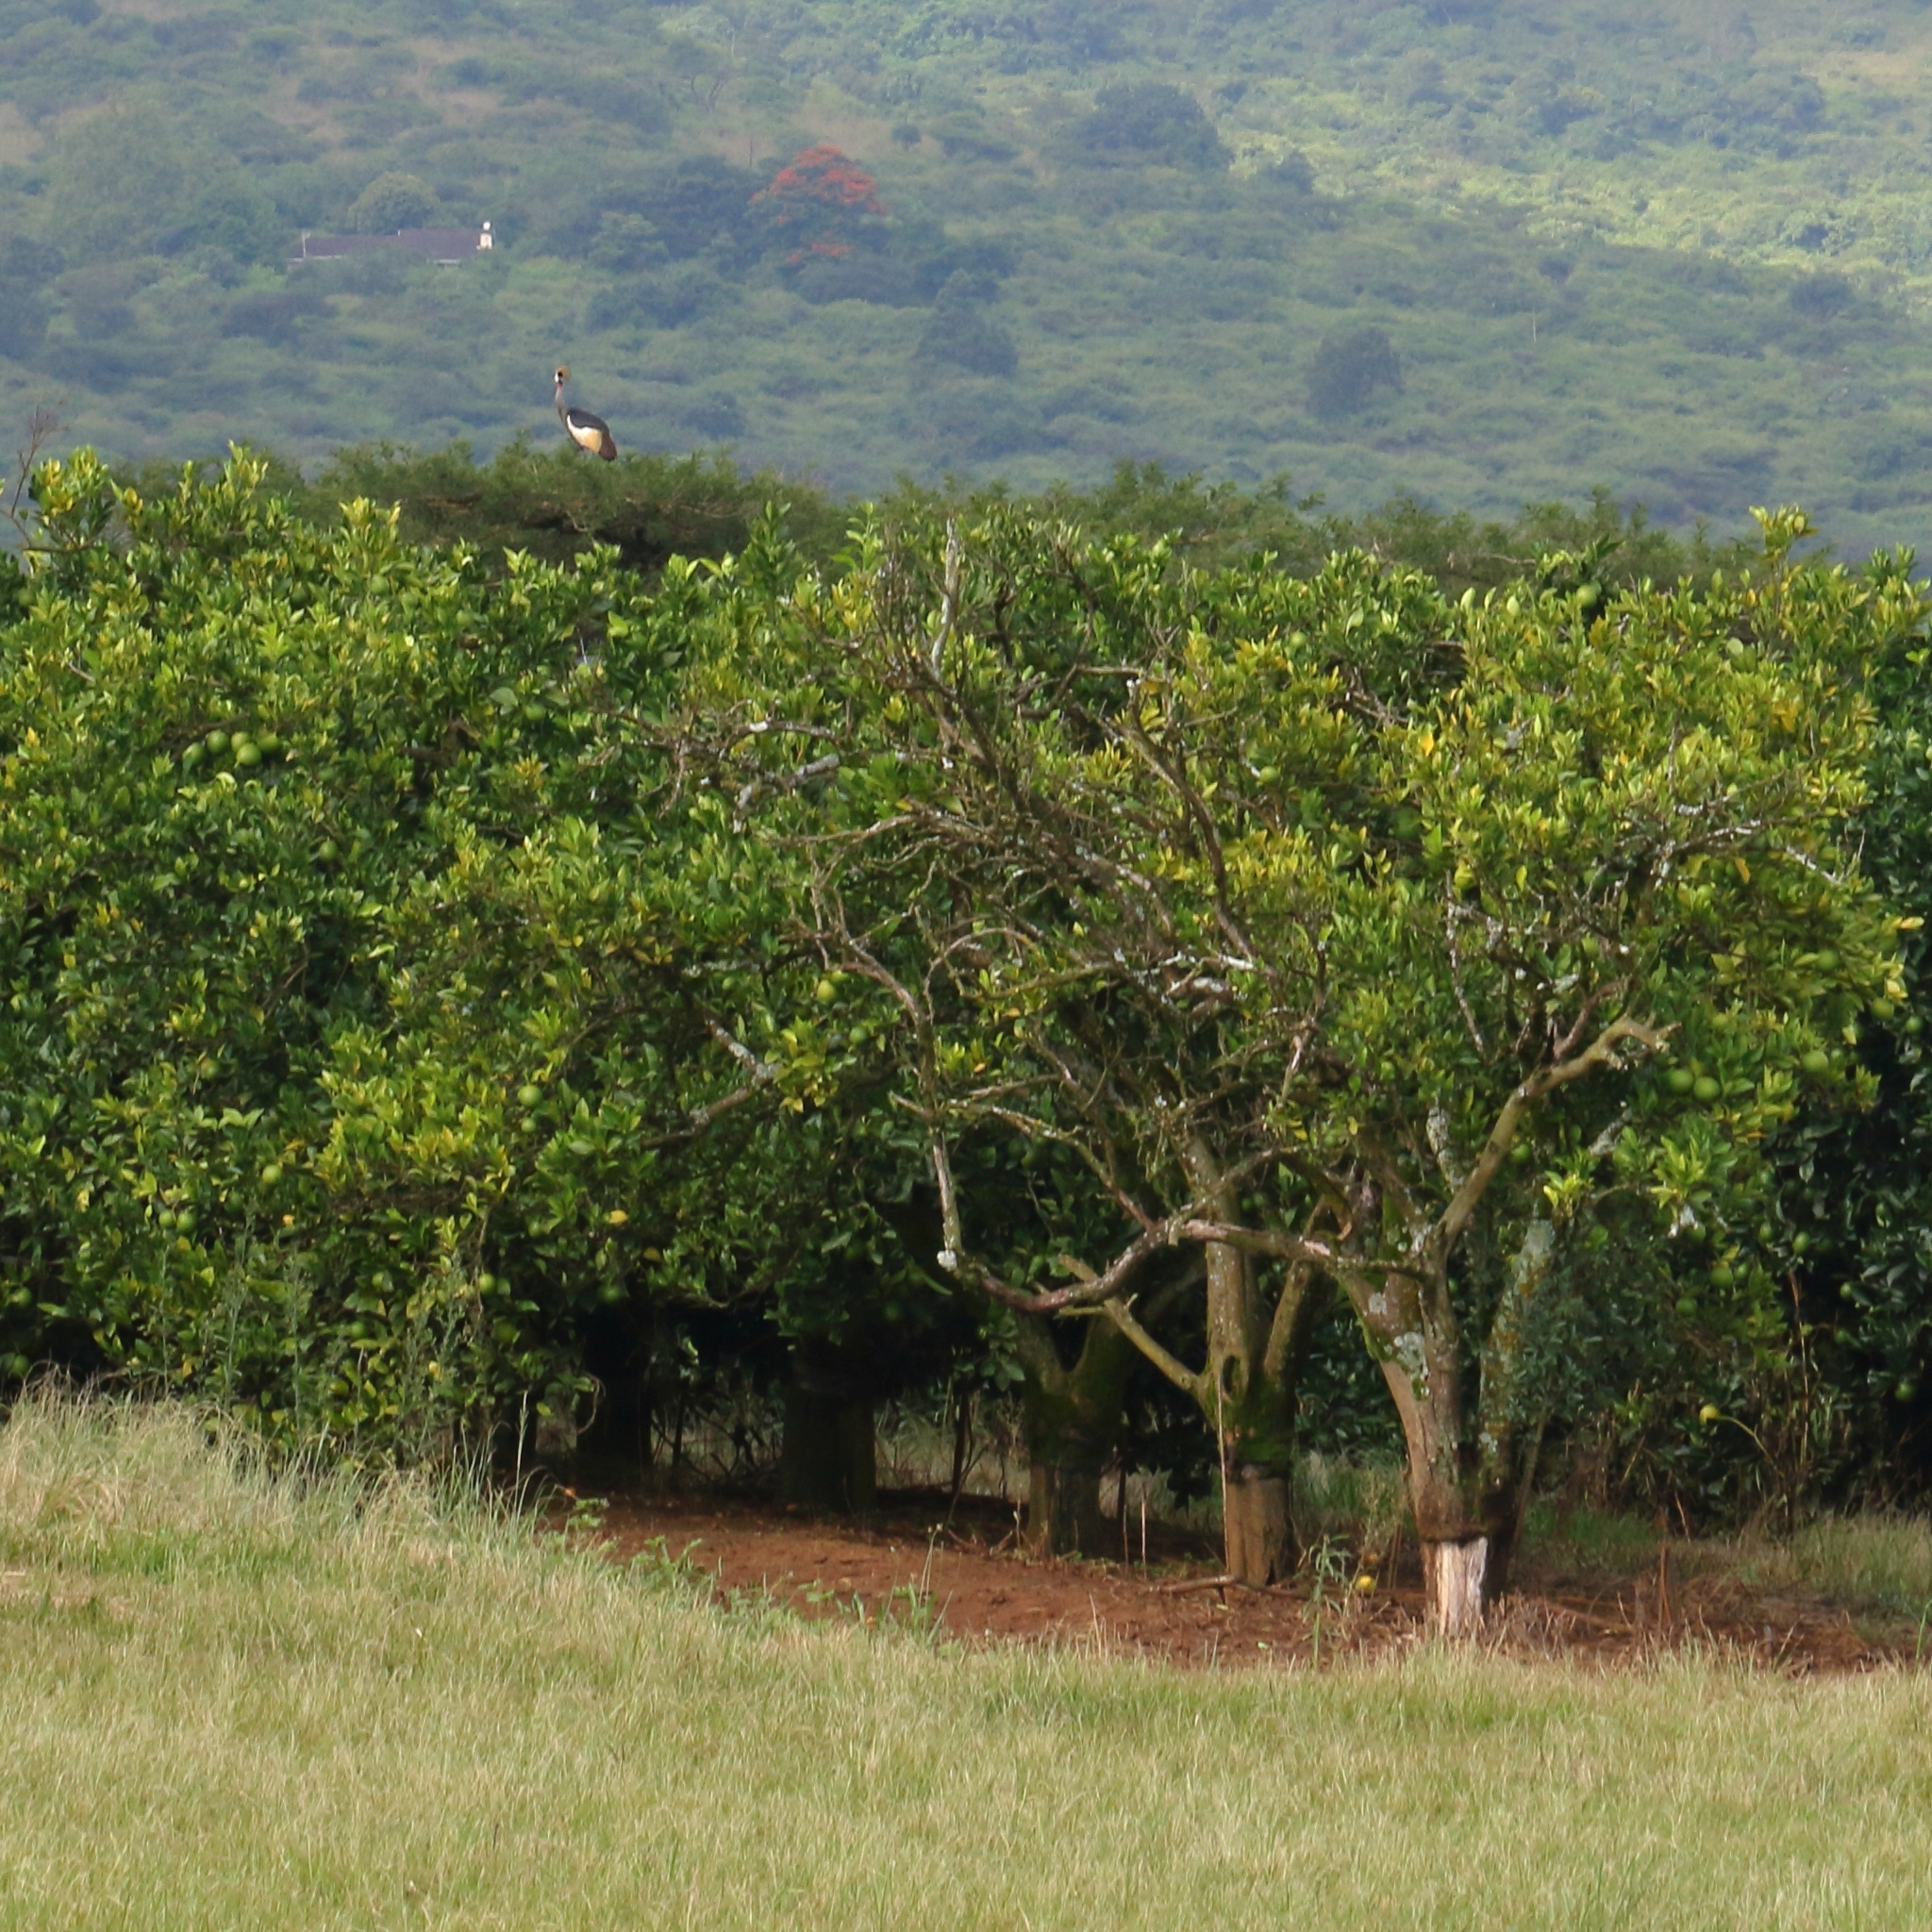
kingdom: Animalia
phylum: Chordata
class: Aves
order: Gruiformes
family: Gruidae
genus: Balearica
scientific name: Balearica regulorum
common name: Grey crowned crane
